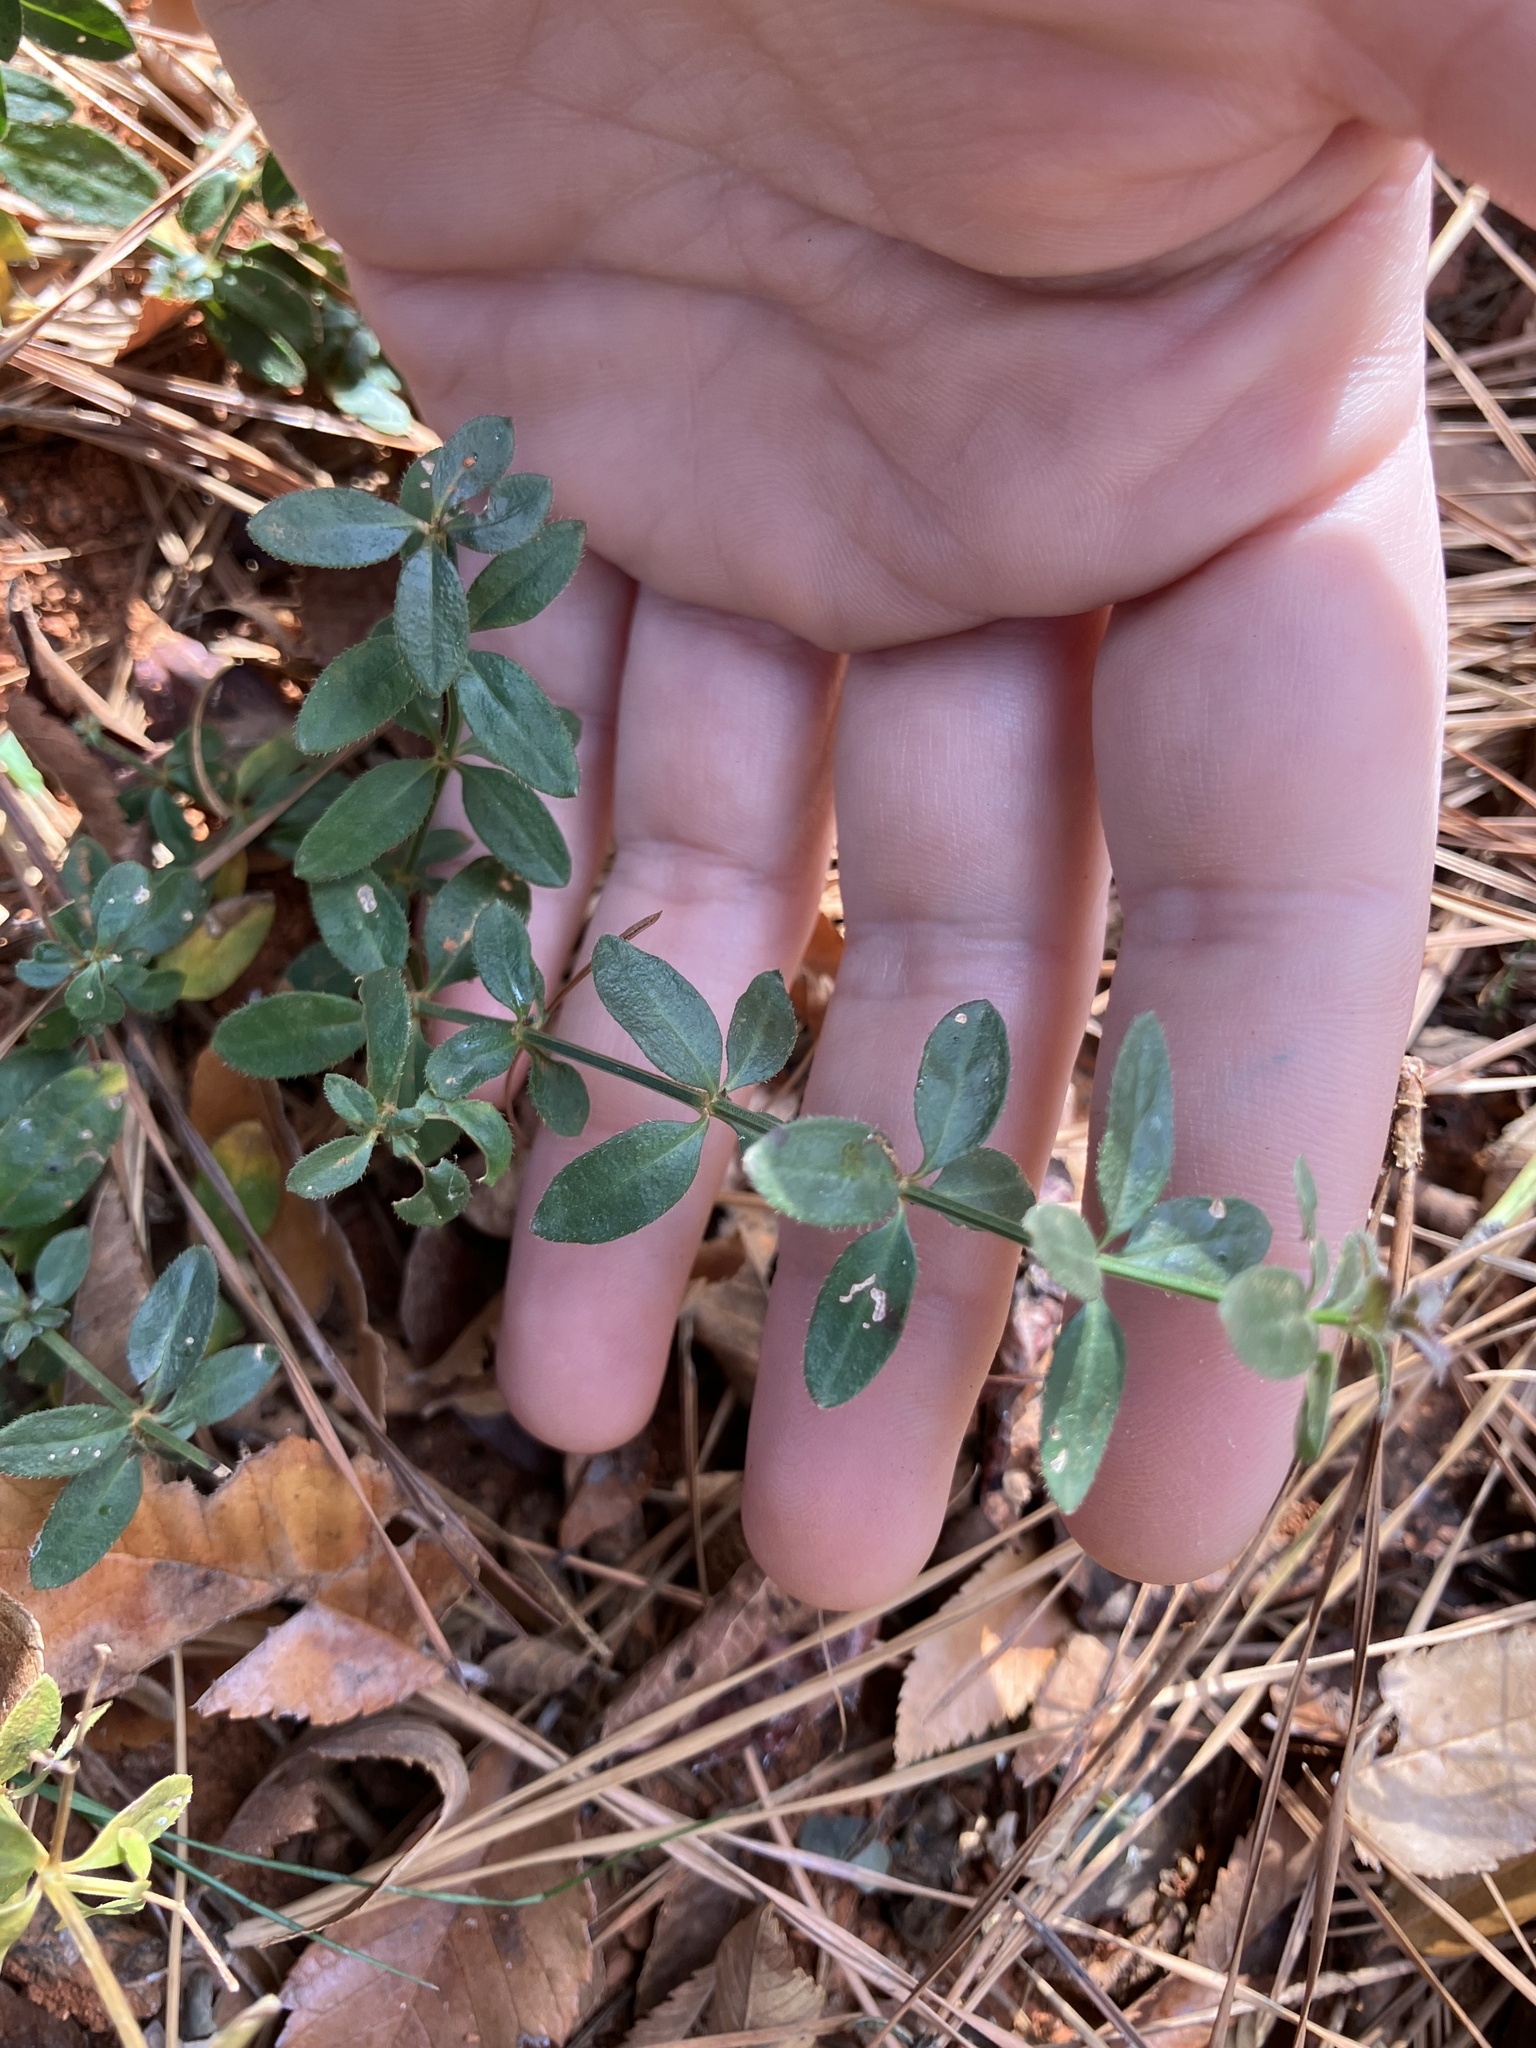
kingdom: Plantae
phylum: Tracheophyta
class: Magnoliopsida
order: Gentianales
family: Rubiaceae
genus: Galium
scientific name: Galium pilosum
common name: Hairy bedstraw
